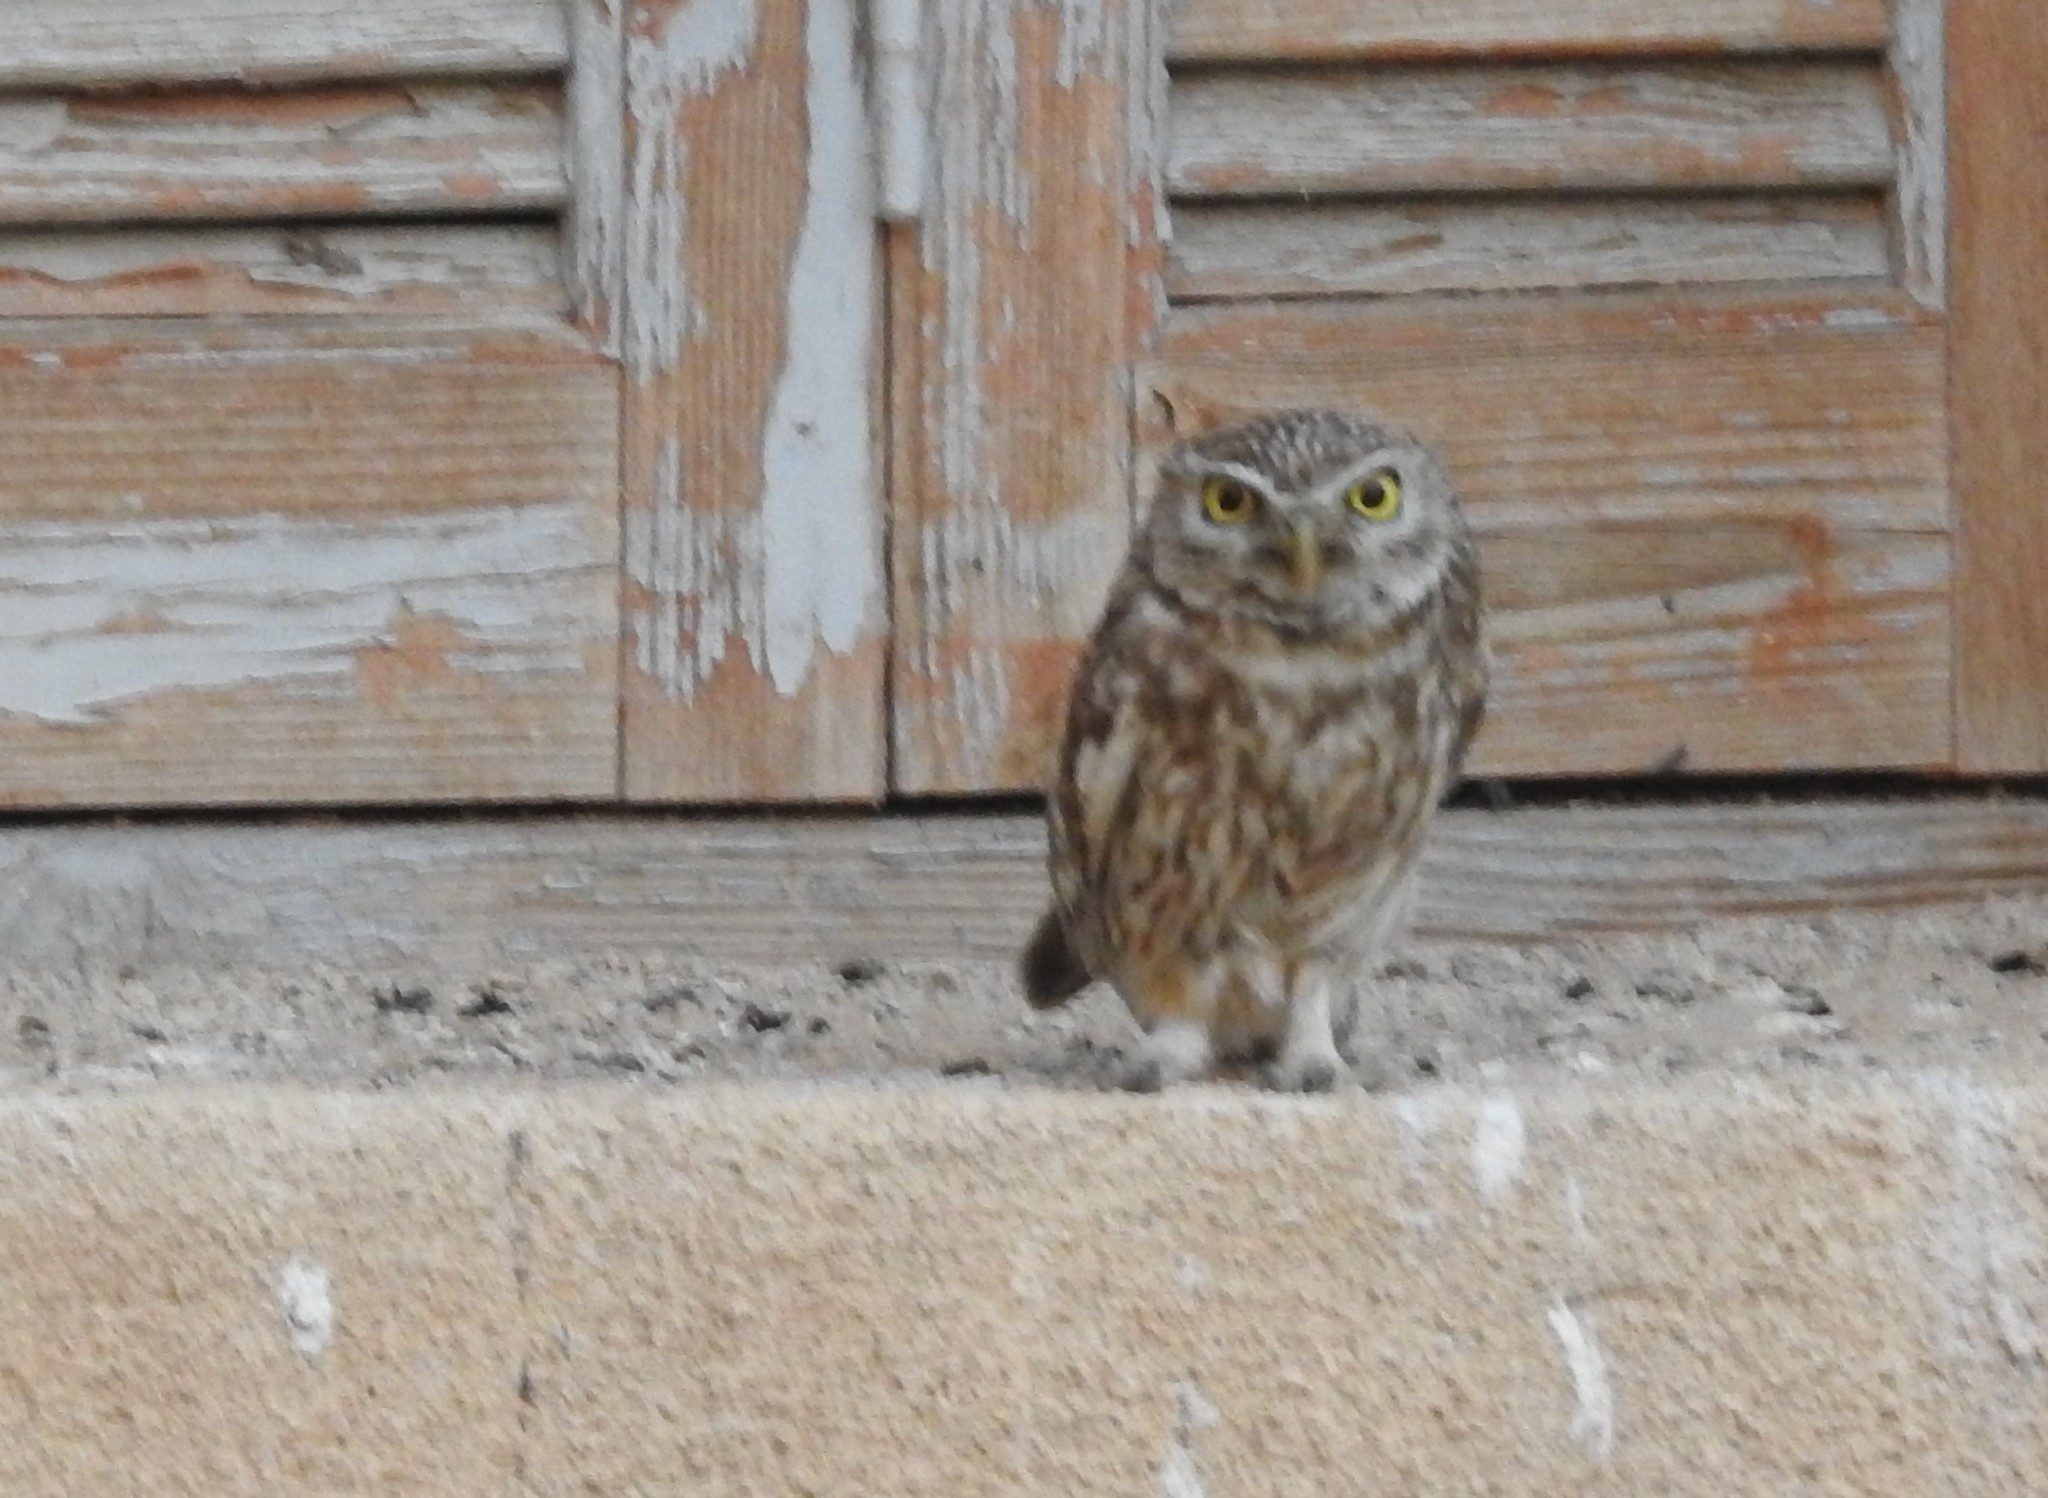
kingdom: Animalia
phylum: Chordata
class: Aves
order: Strigiformes
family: Strigidae
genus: Athene
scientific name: Athene noctua
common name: Little owl
